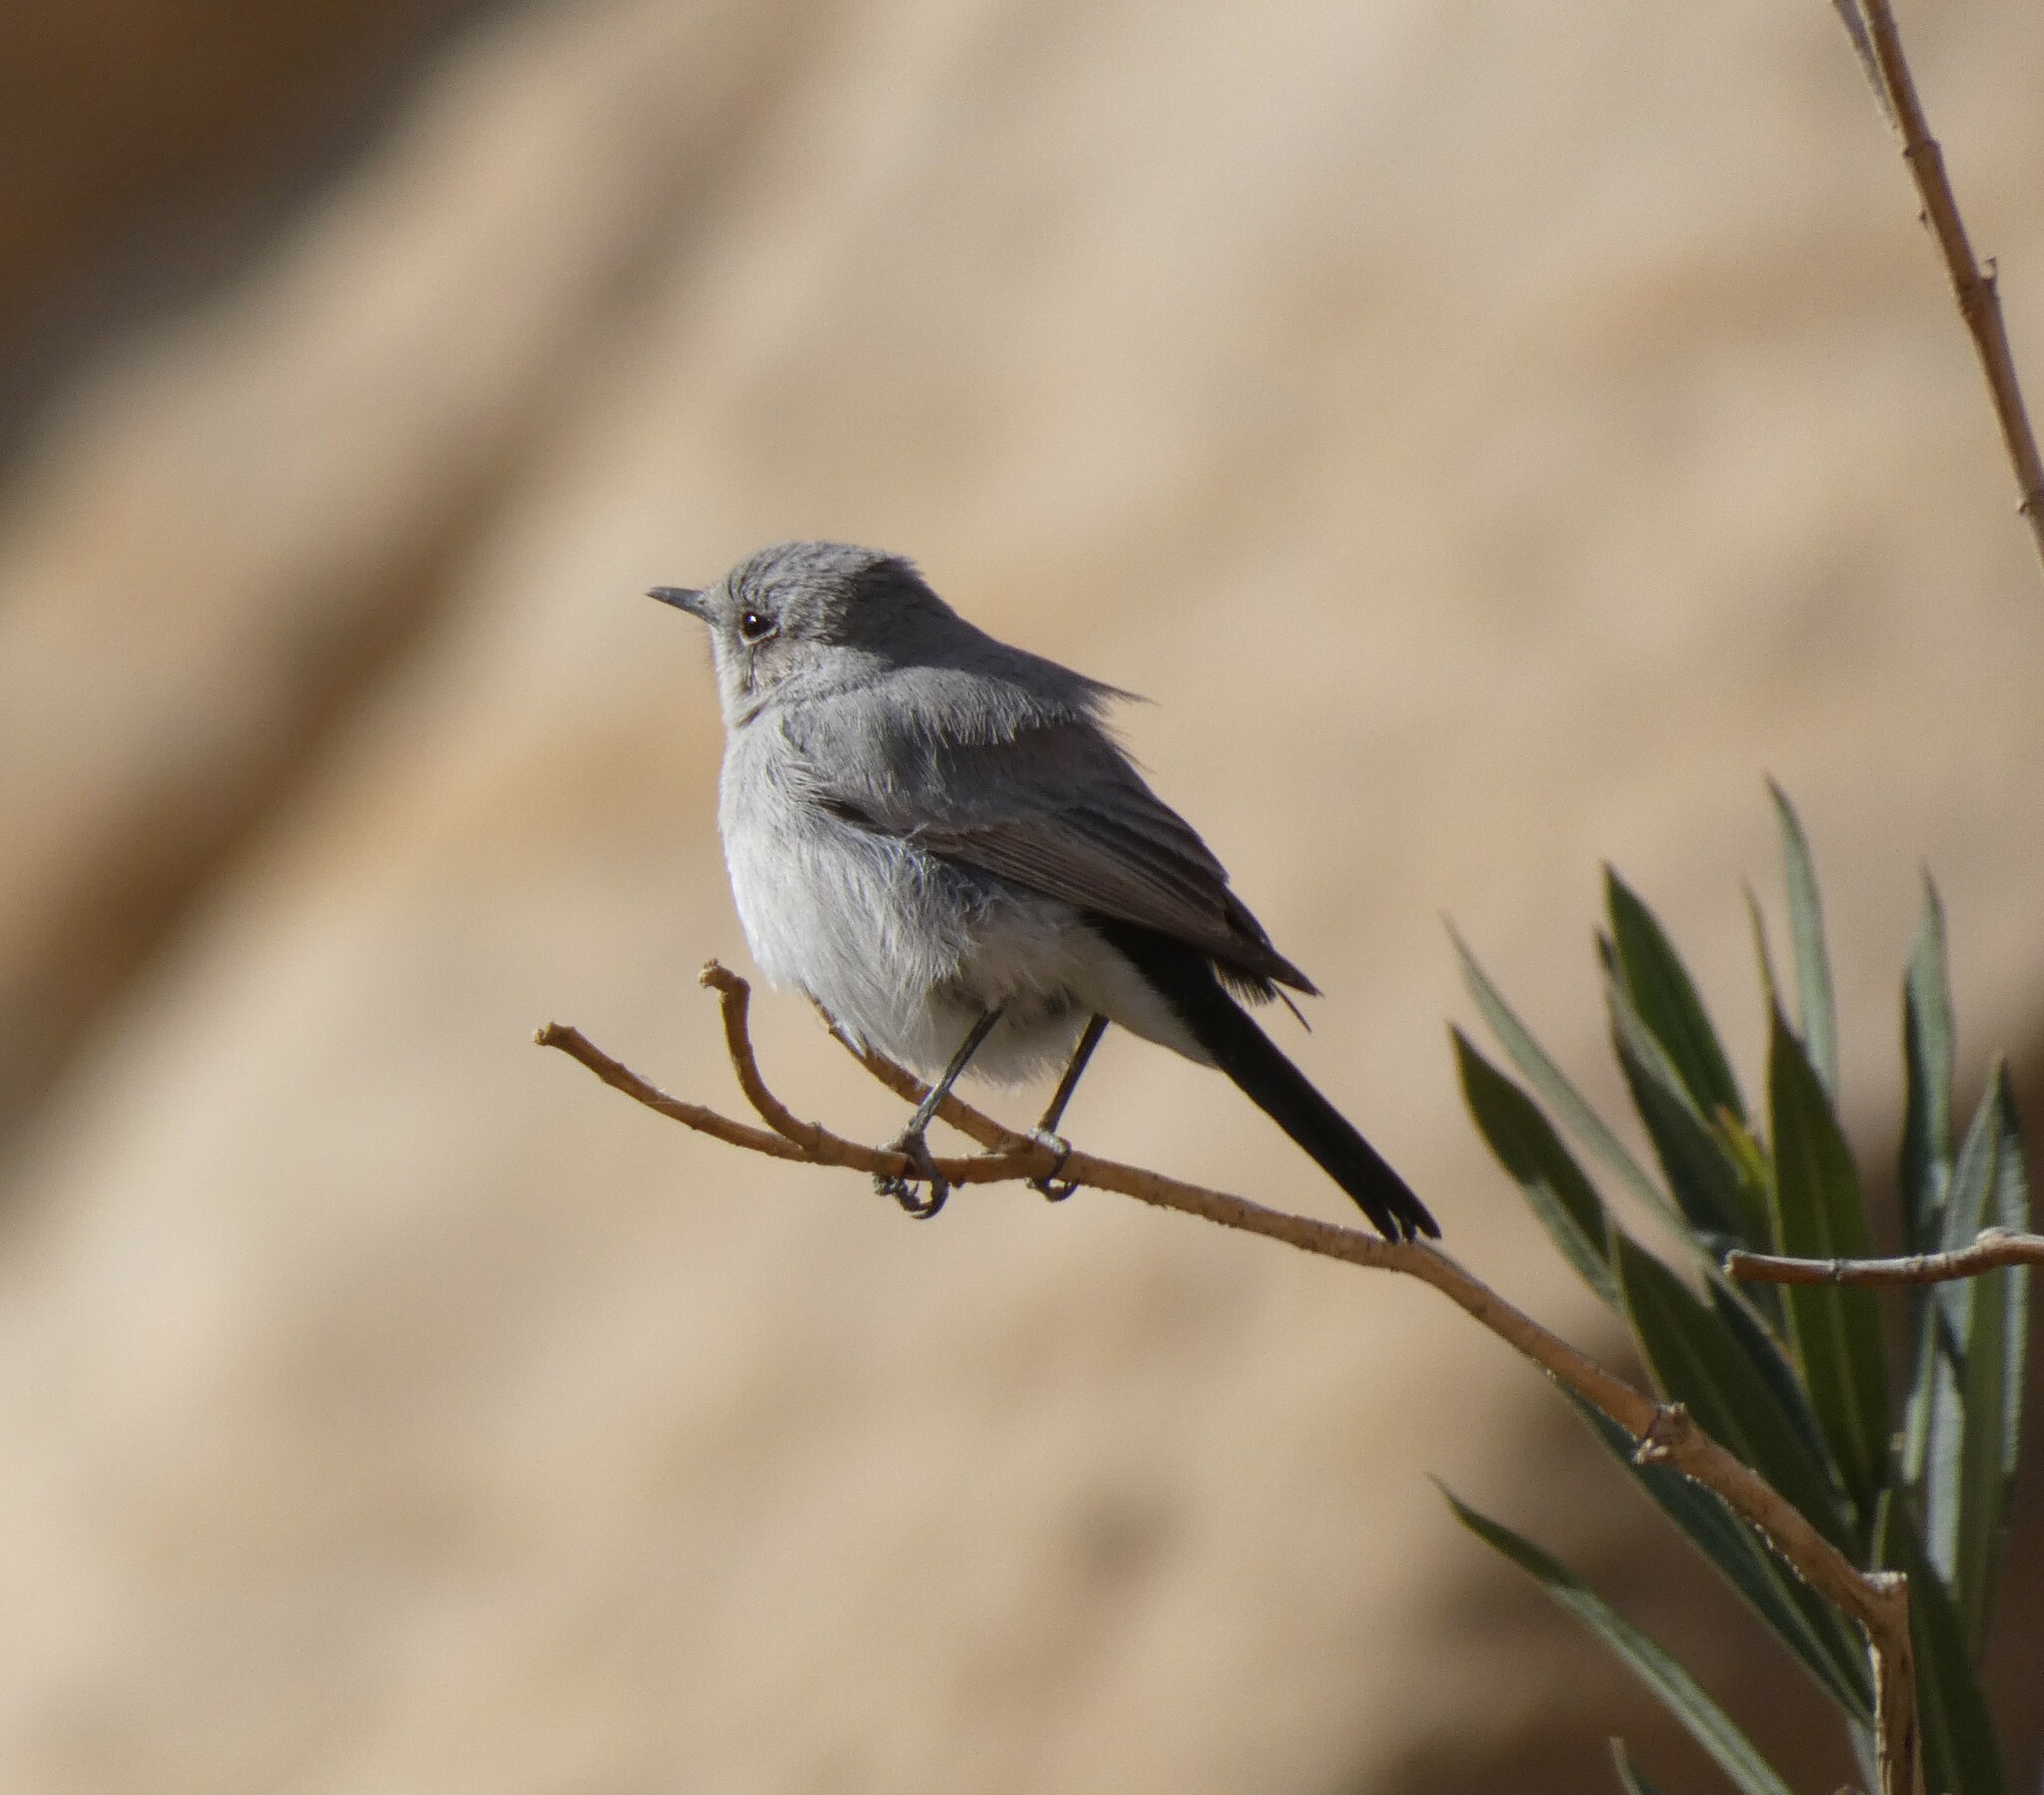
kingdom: Animalia
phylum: Chordata
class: Aves
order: Passeriformes
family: Muscicapidae
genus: Oenanthe
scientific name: Oenanthe melanura
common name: Blackstart
